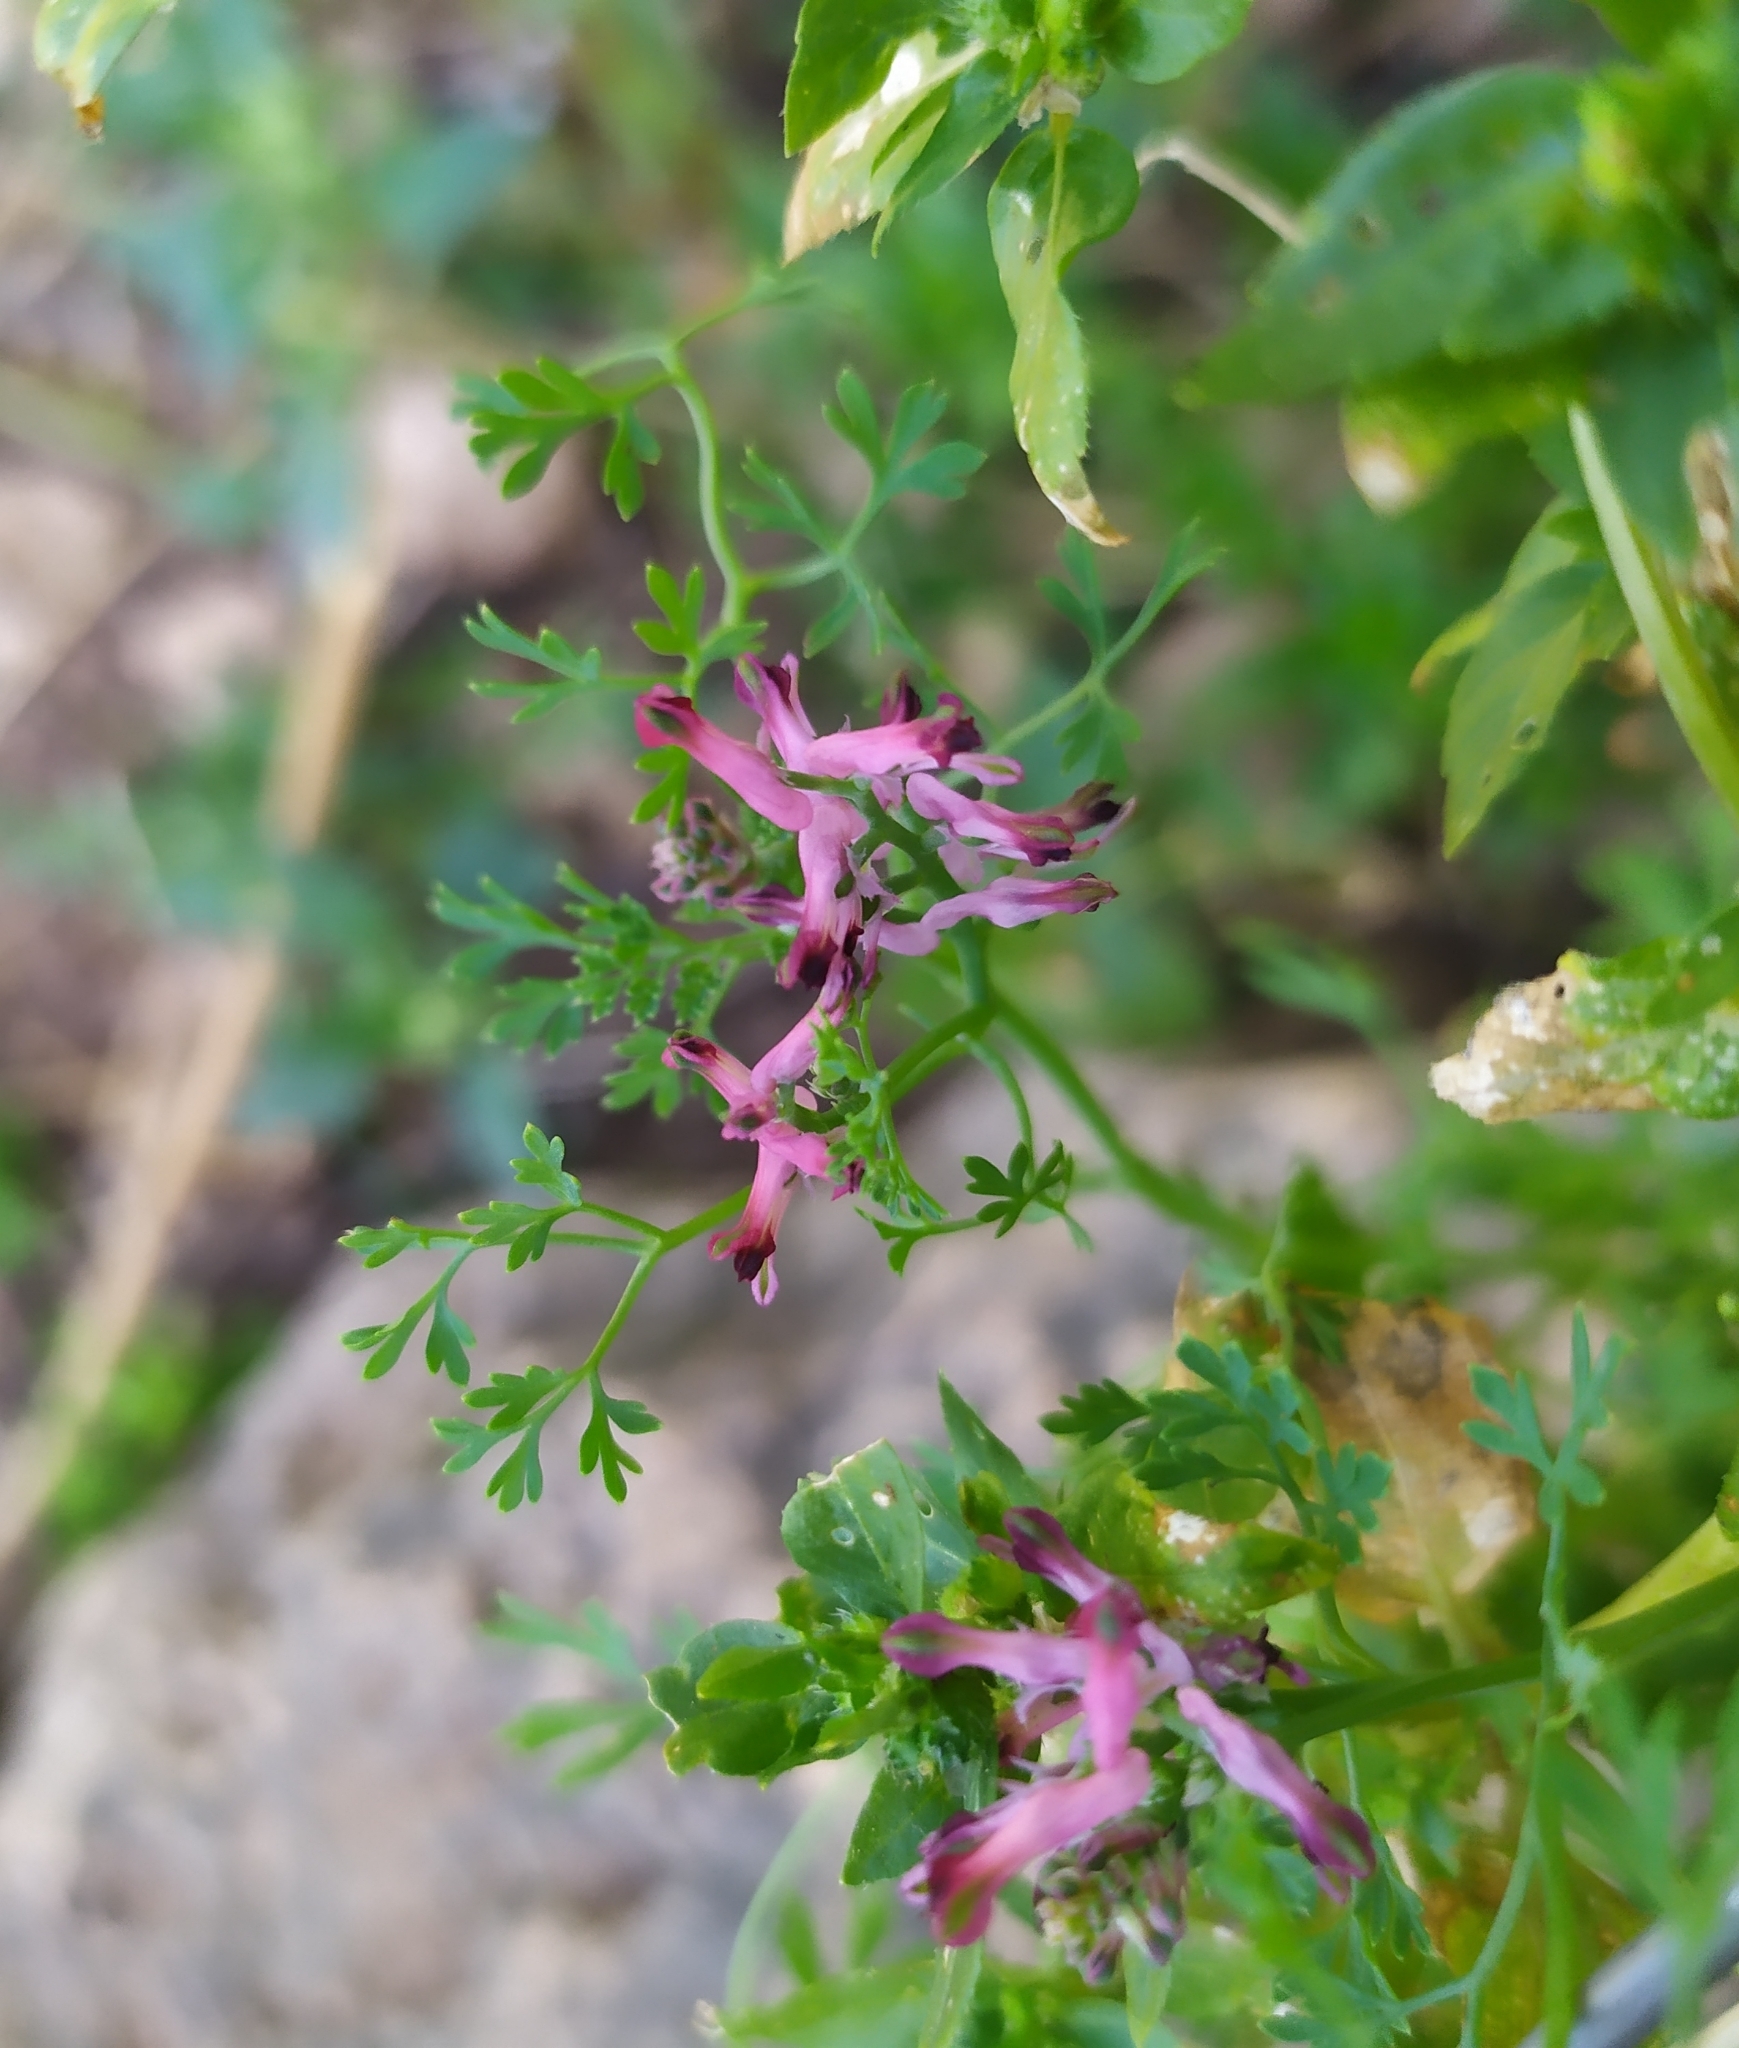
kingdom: Plantae
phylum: Tracheophyta
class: Magnoliopsida
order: Ranunculales
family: Papaveraceae
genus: Fumaria
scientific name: Fumaria officinalis
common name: Common fumitory
